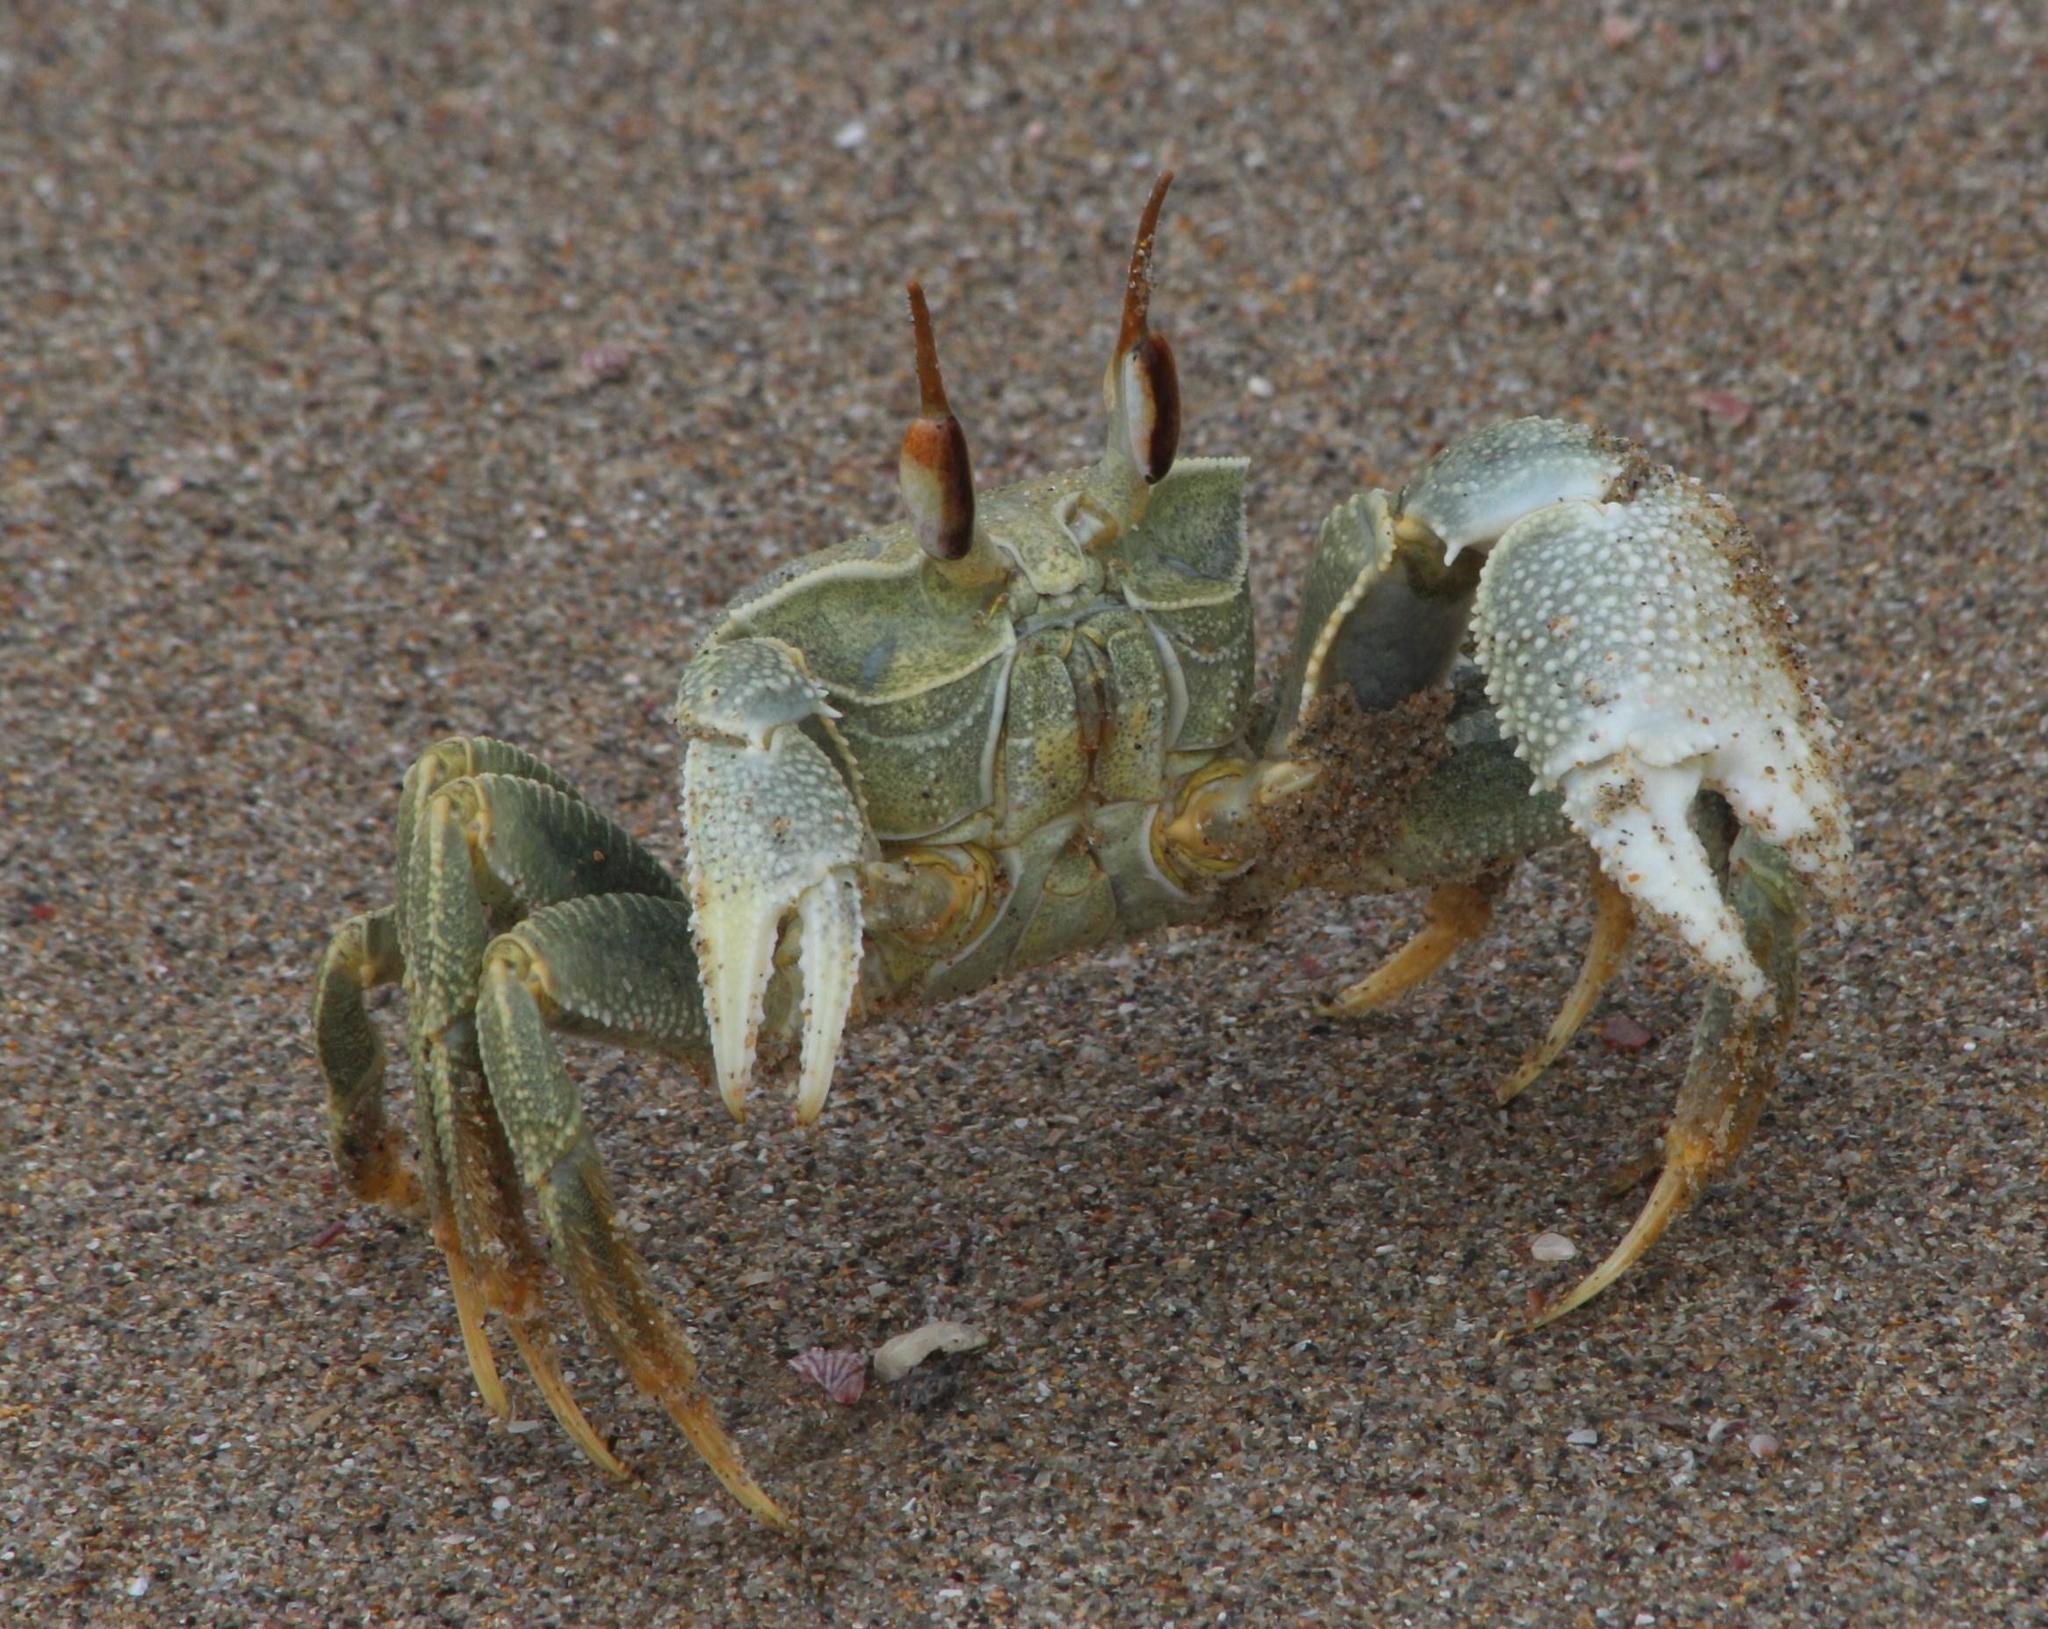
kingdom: Animalia
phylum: Arthropoda
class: Malacostraca
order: Decapoda
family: Ocypodidae
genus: Ocypode
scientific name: Ocypode ceratophthalmus
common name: Indo-pacific ghost crab
